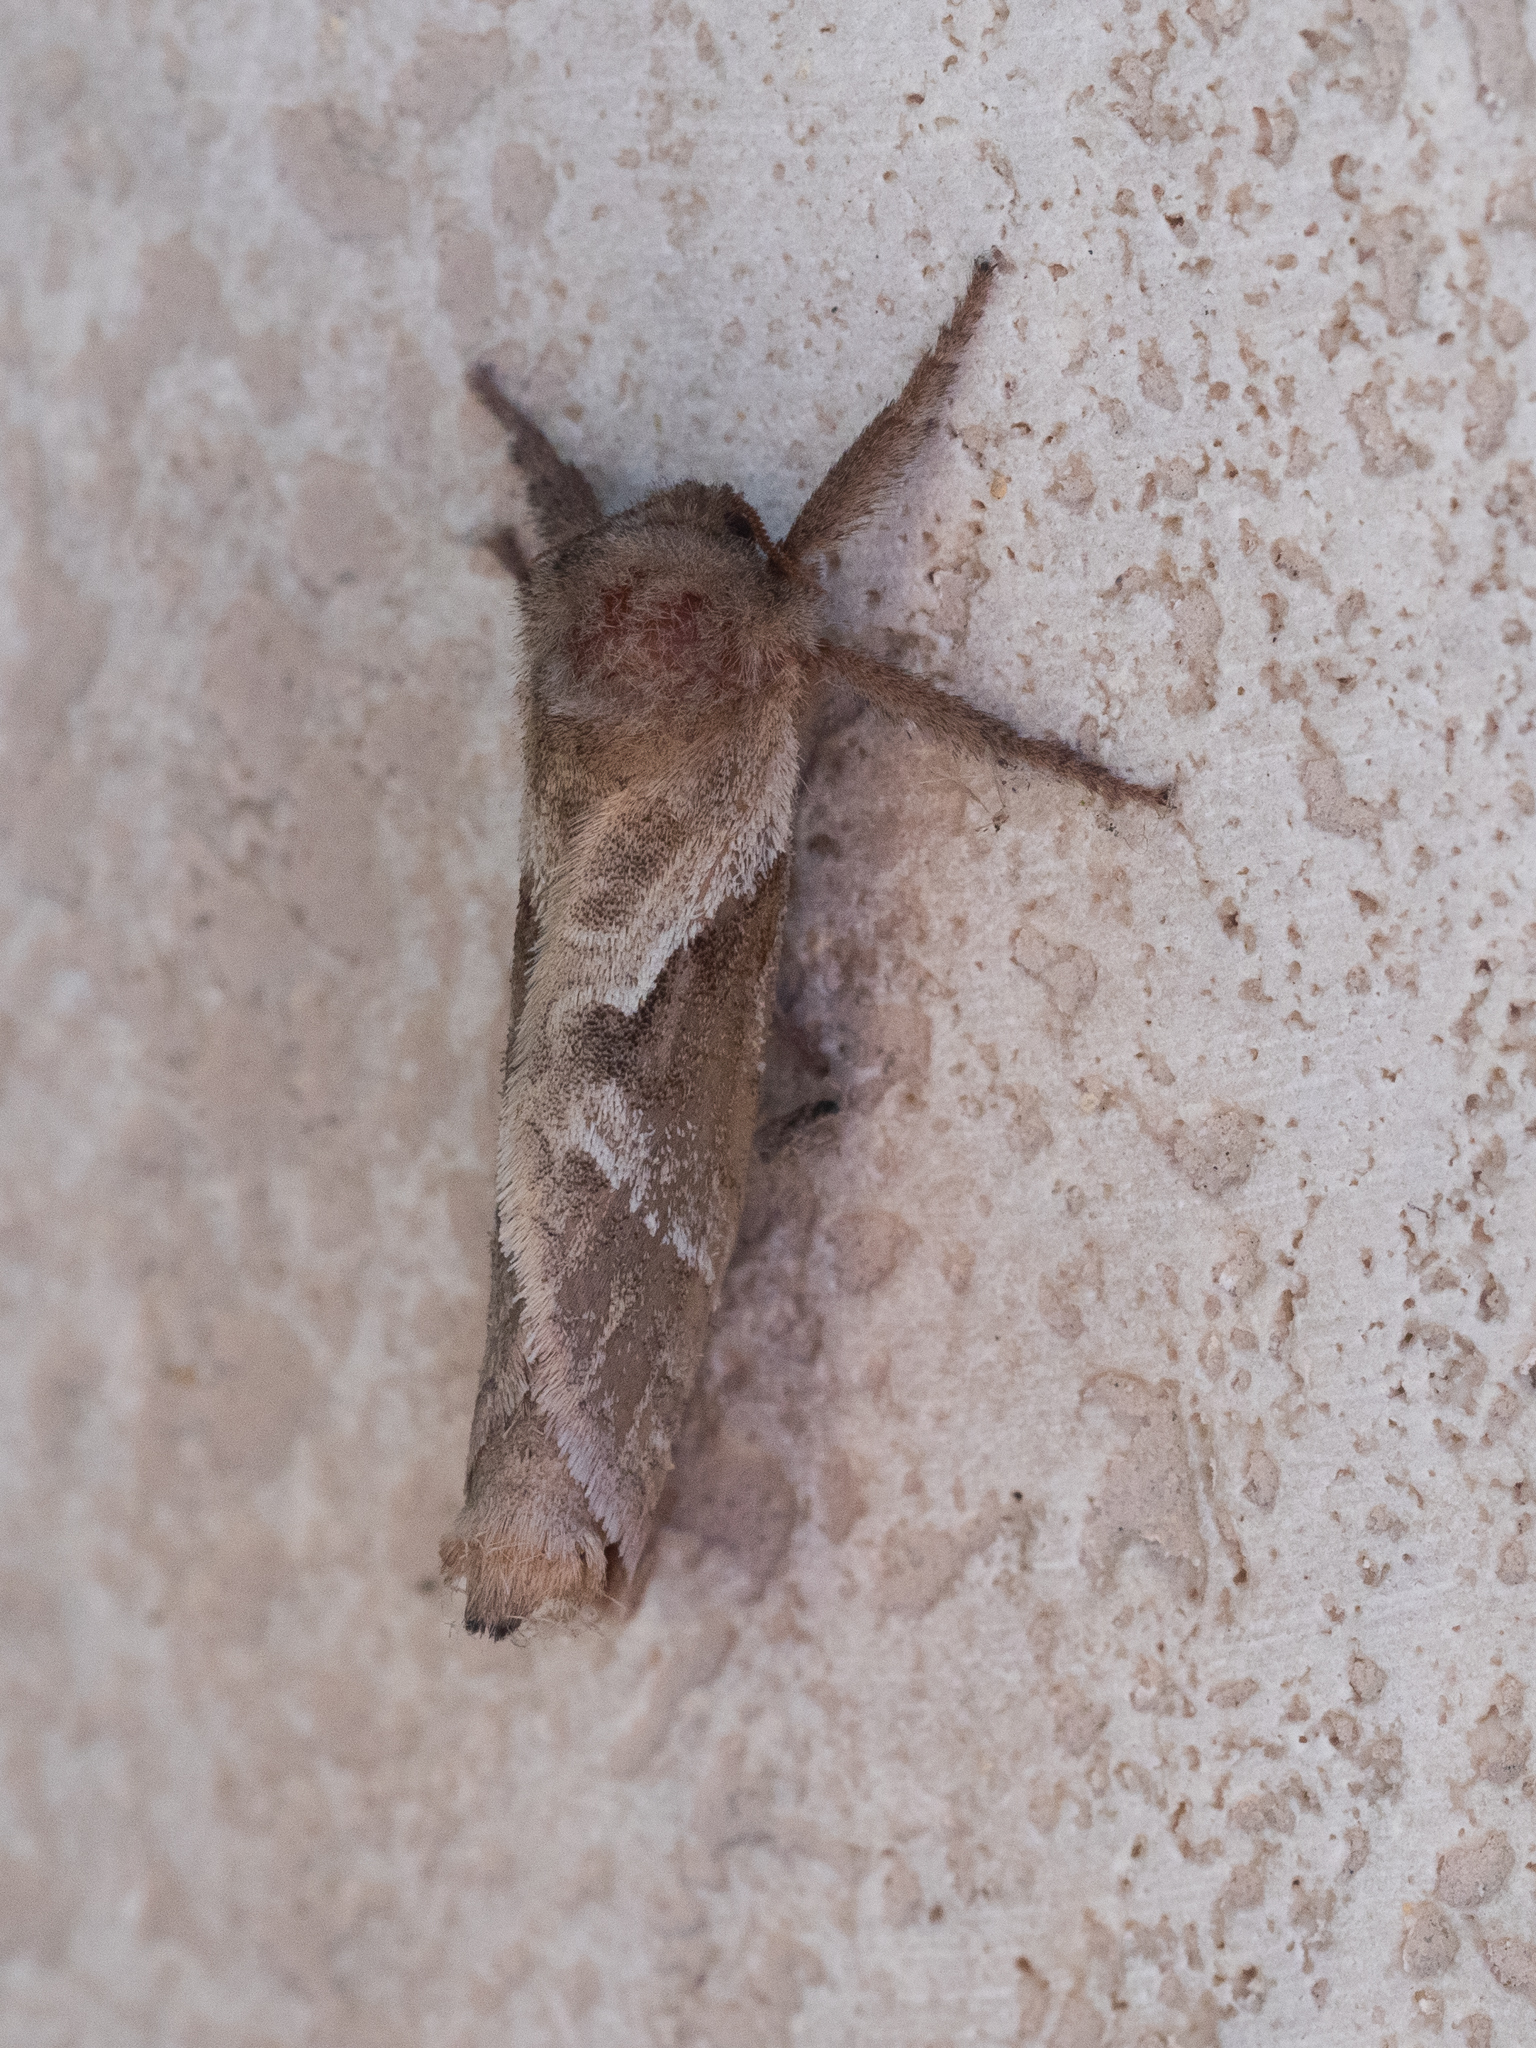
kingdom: Animalia
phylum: Arthropoda
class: Insecta
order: Lepidoptera
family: Hepialidae
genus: Triodia
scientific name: Triodia sylvina
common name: Orange swift
